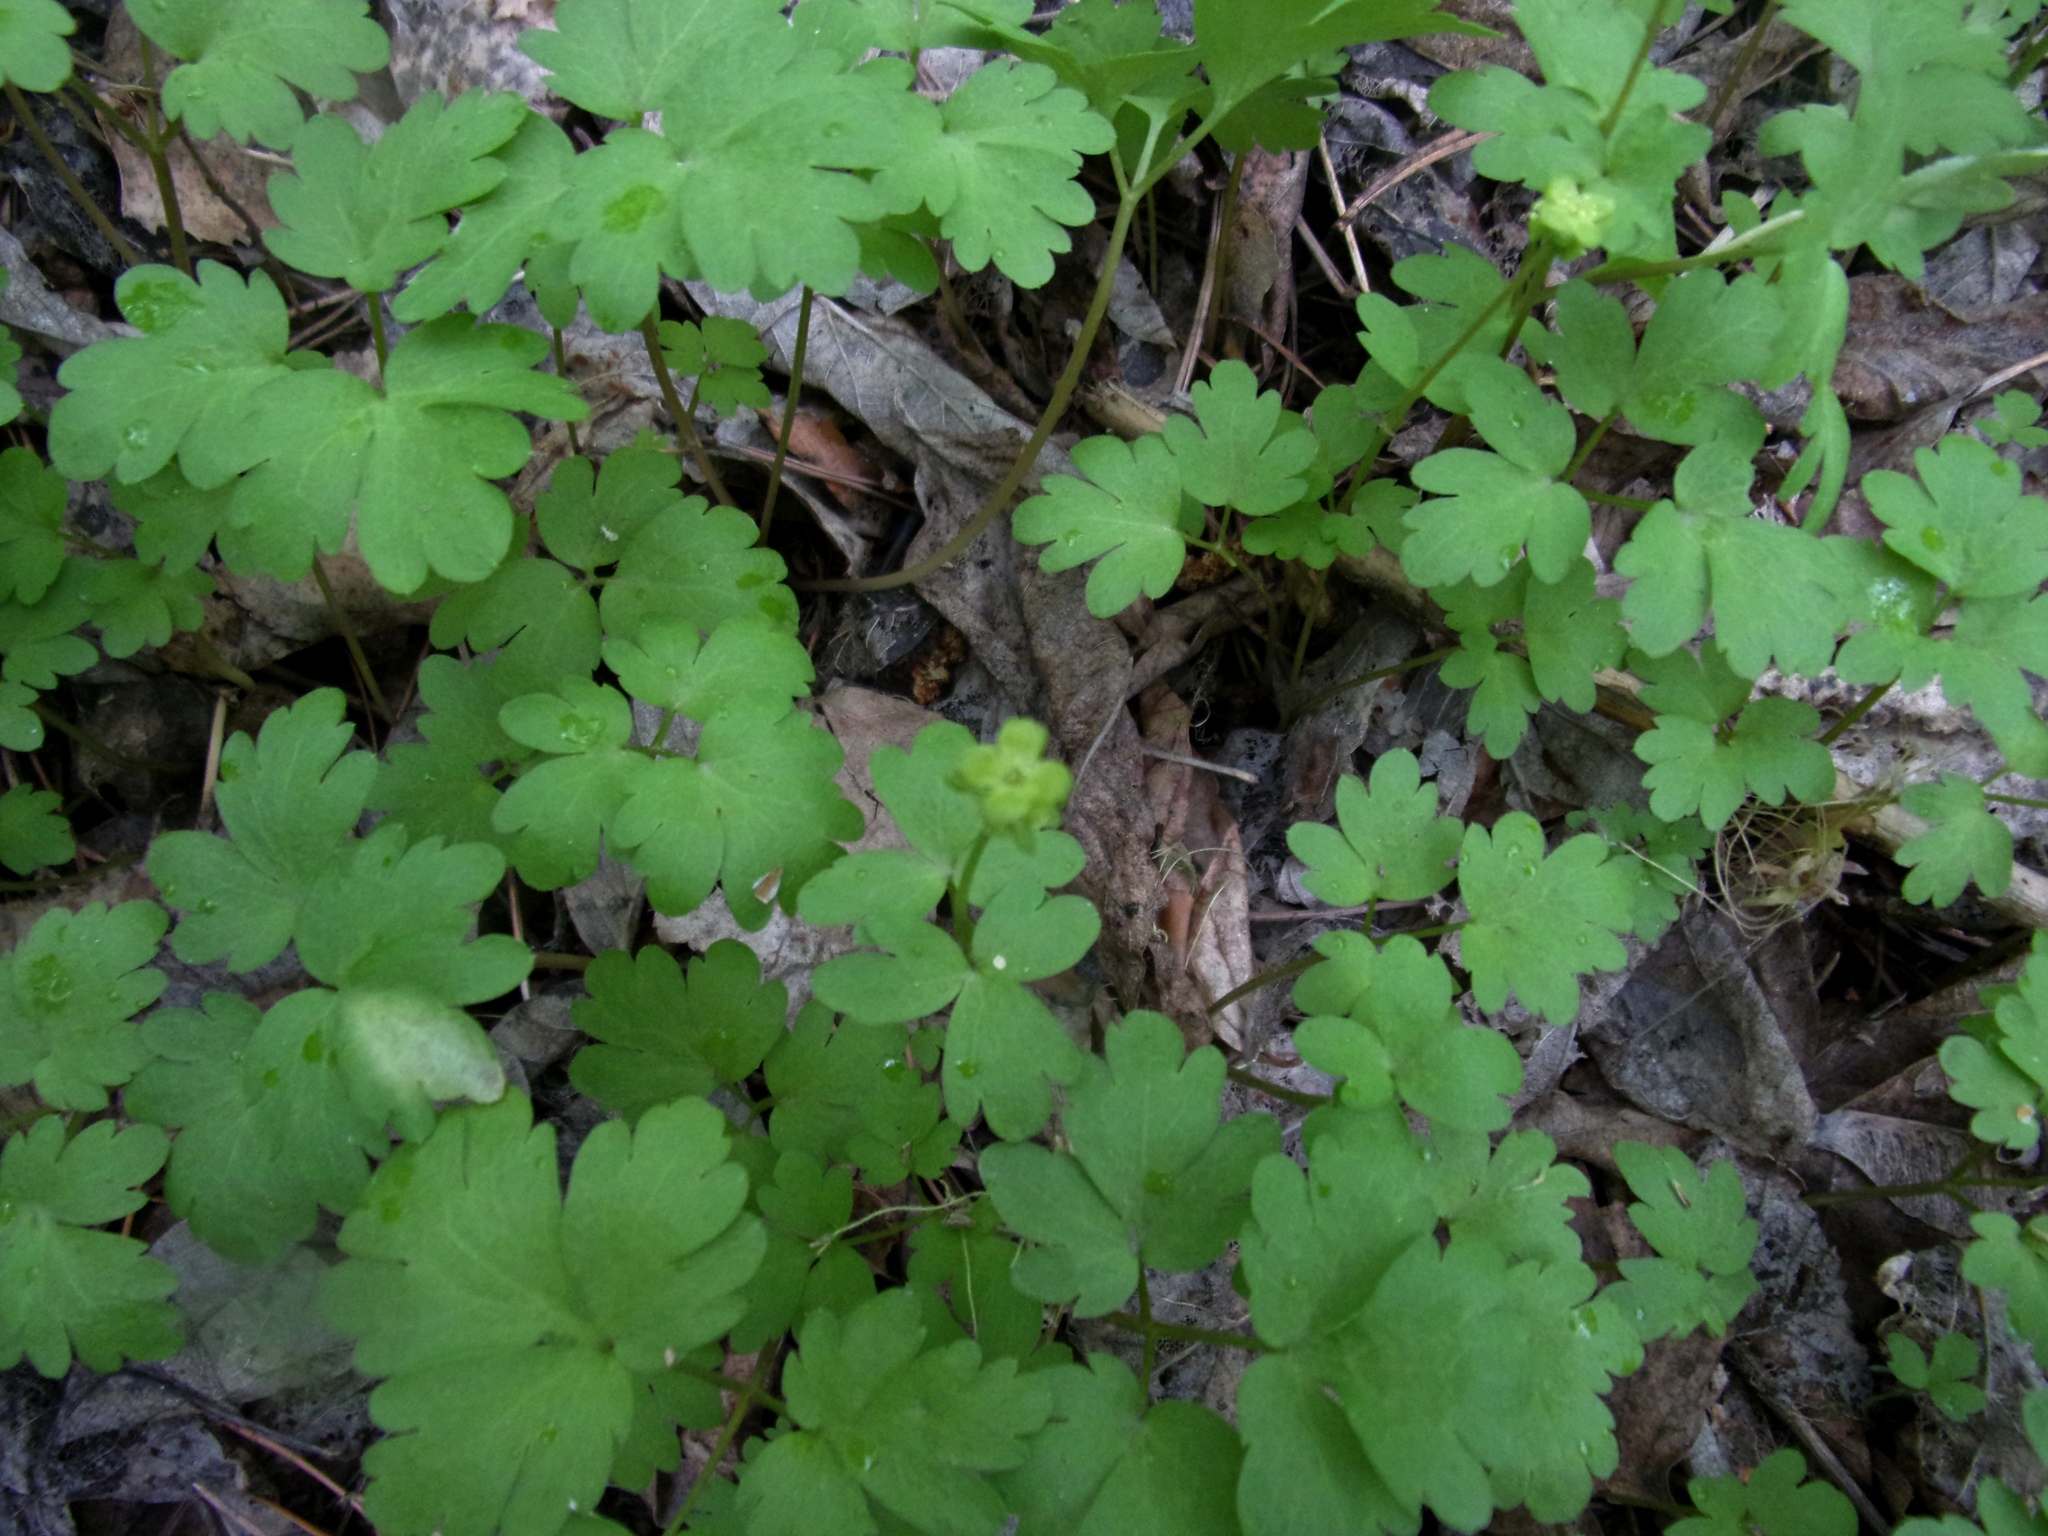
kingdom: Plantae
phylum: Tracheophyta
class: Magnoliopsida
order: Dipsacales
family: Viburnaceae
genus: Adoxa
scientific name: Adoxa moschatellina
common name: Moschatel
